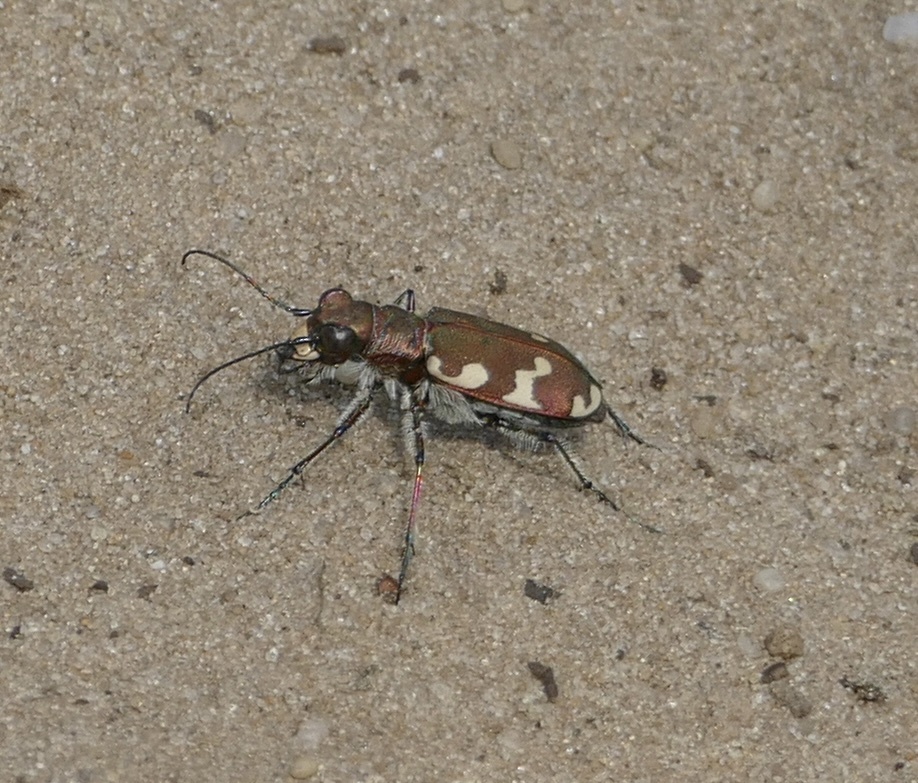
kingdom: Animalia
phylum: Arthropoda
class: Insecta
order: Coleoptera
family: Carabidae
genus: Cicindela
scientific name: Cicindela hybrida
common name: Northern dune tiger beetle
